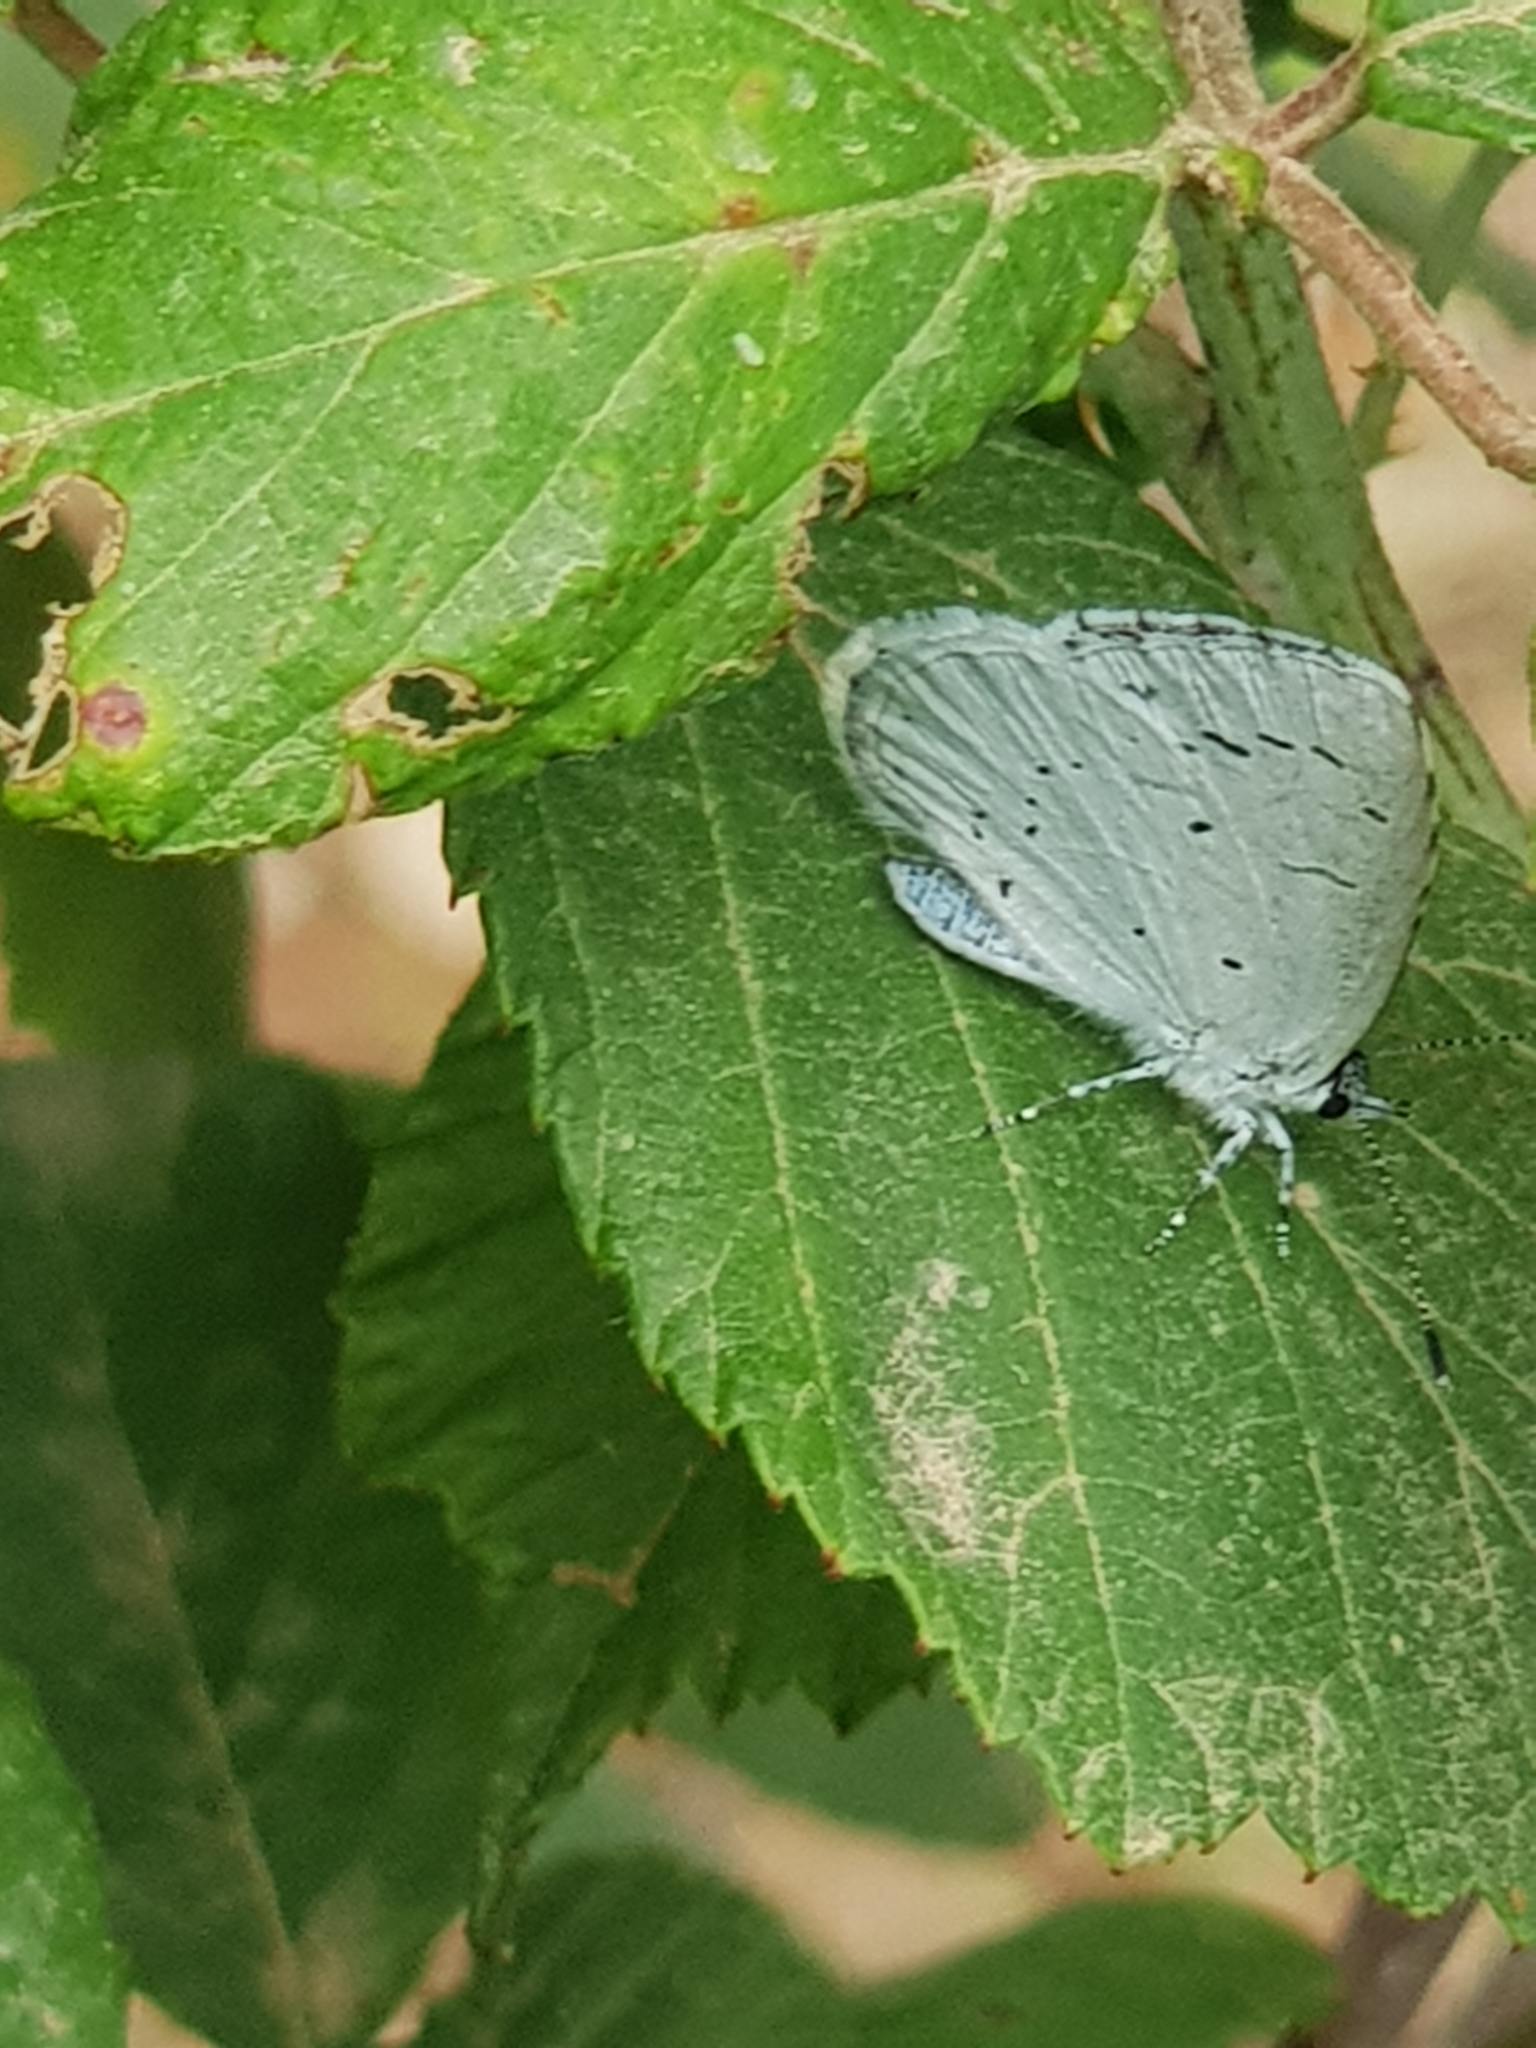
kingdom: Animalia
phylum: Arthropoda
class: Insecta
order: Lepidoptera
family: Lycaenidae
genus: Celastrina
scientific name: Celastrina argiolus
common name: Holly blue
